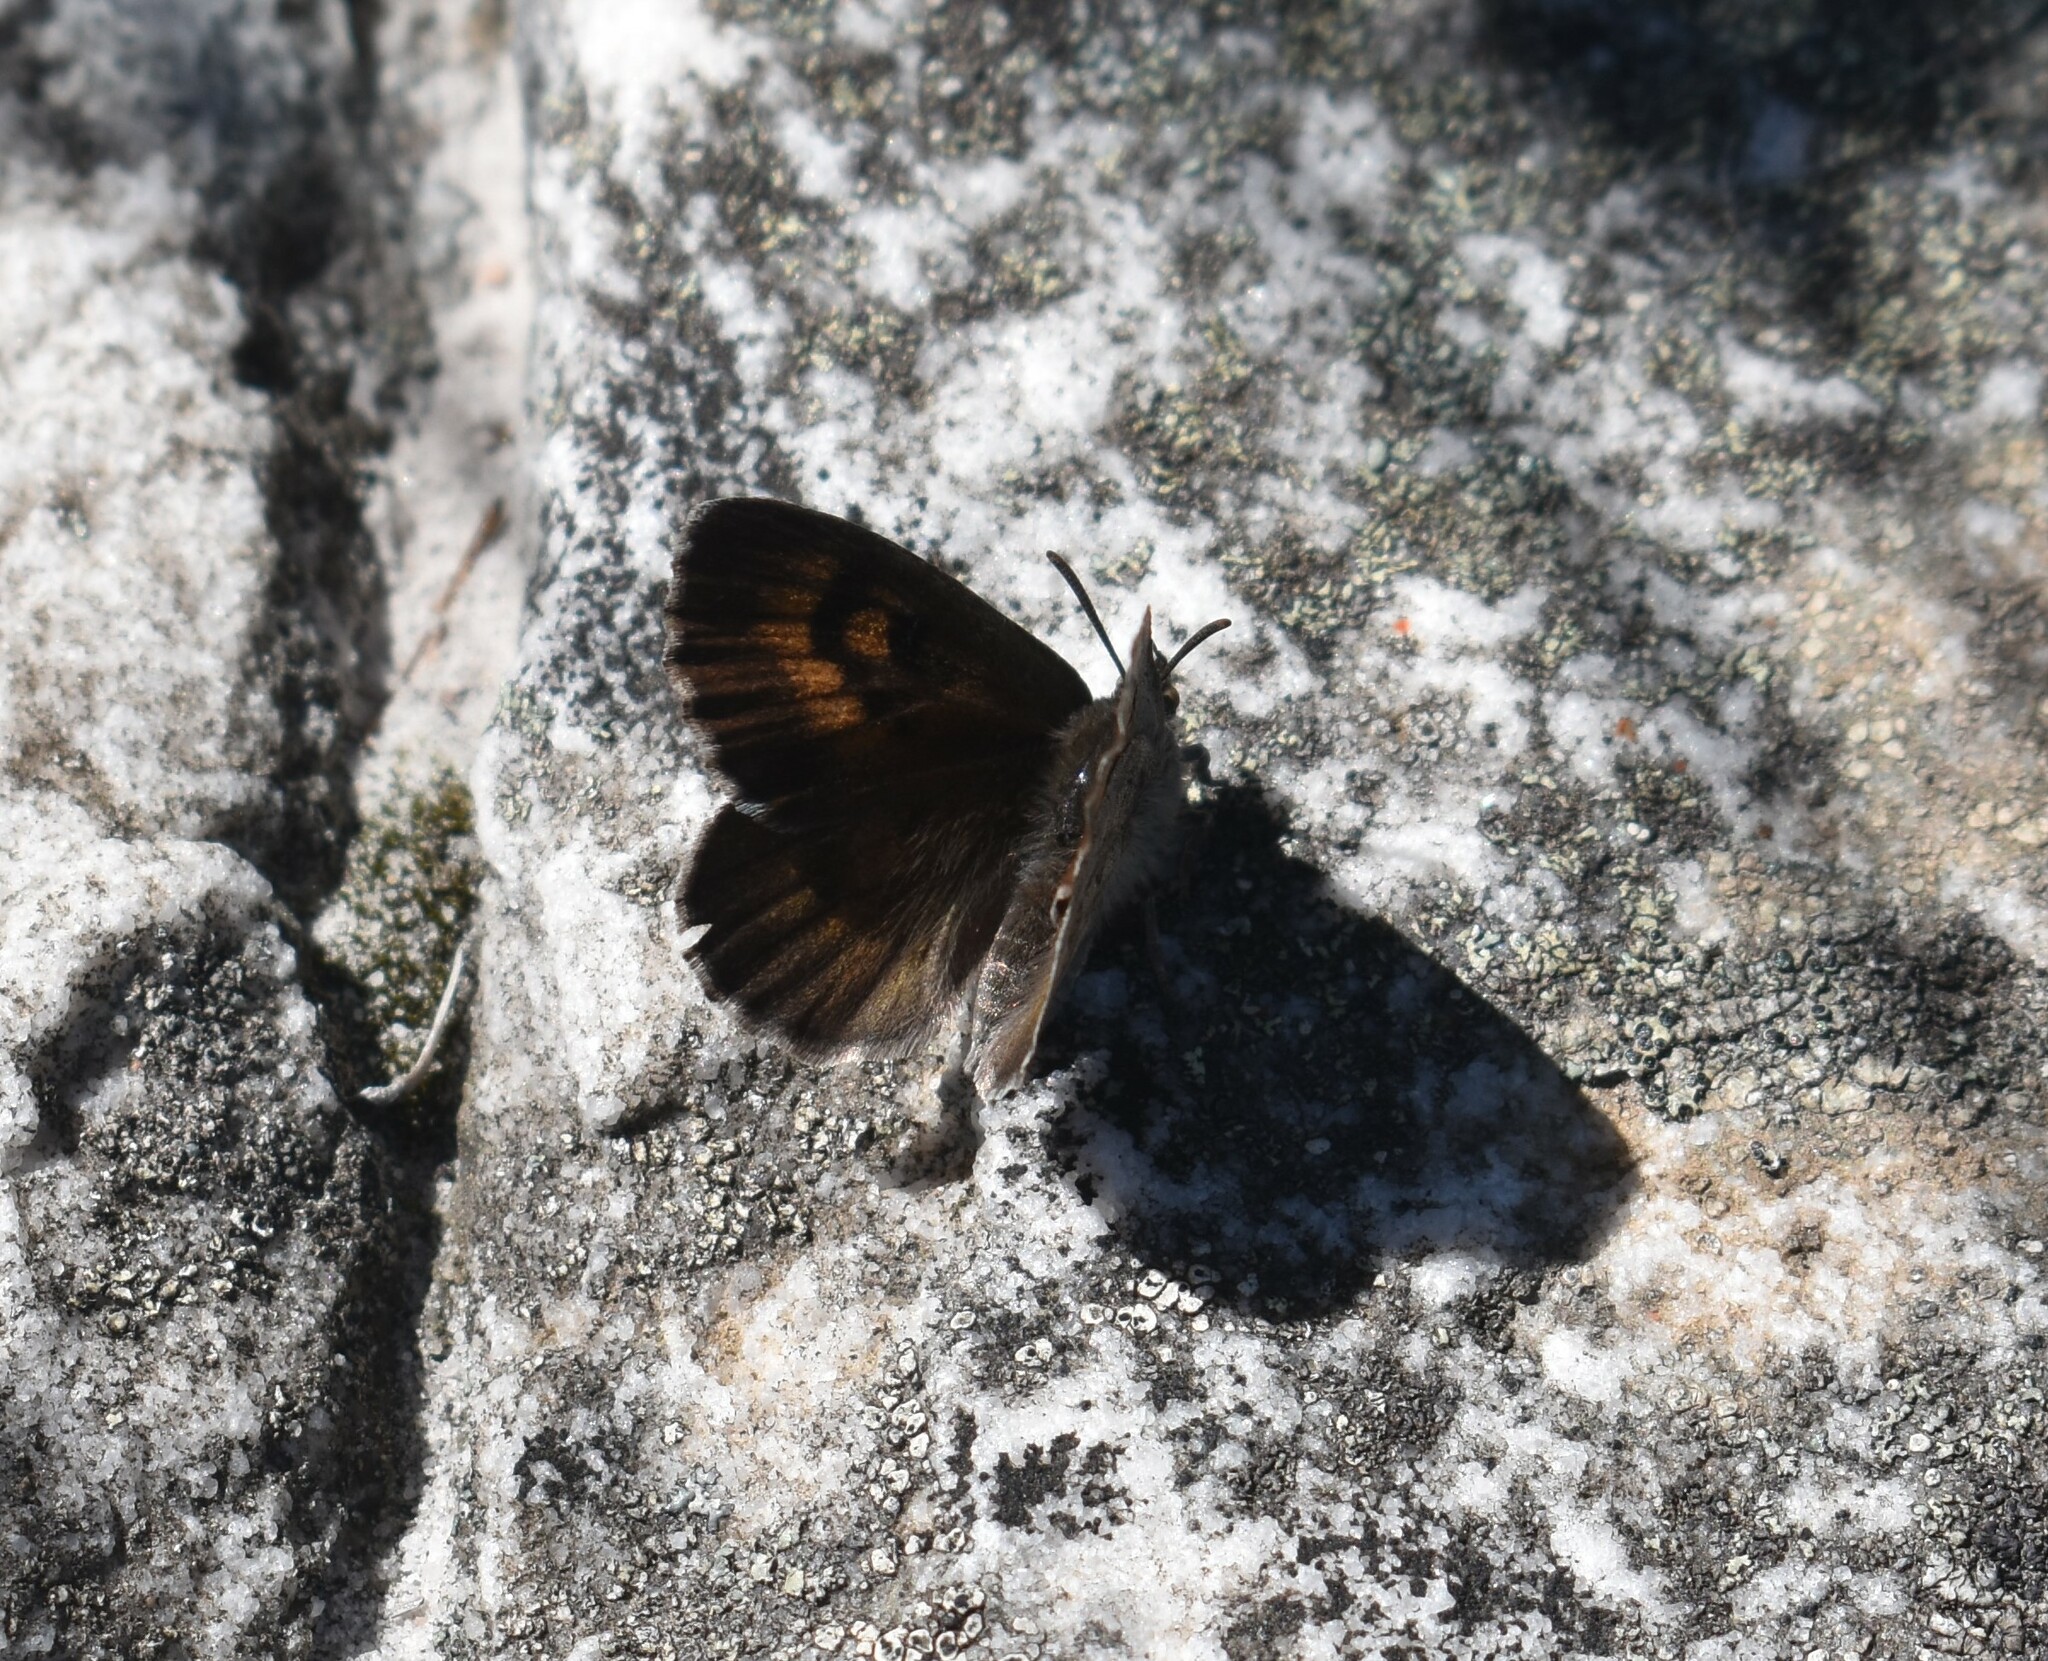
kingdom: Animalia
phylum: Arthropoda
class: Insecta
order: Lepidoptera
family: Lycaenidae
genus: Thestor
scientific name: Thestor montanus
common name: Mountain skolly
